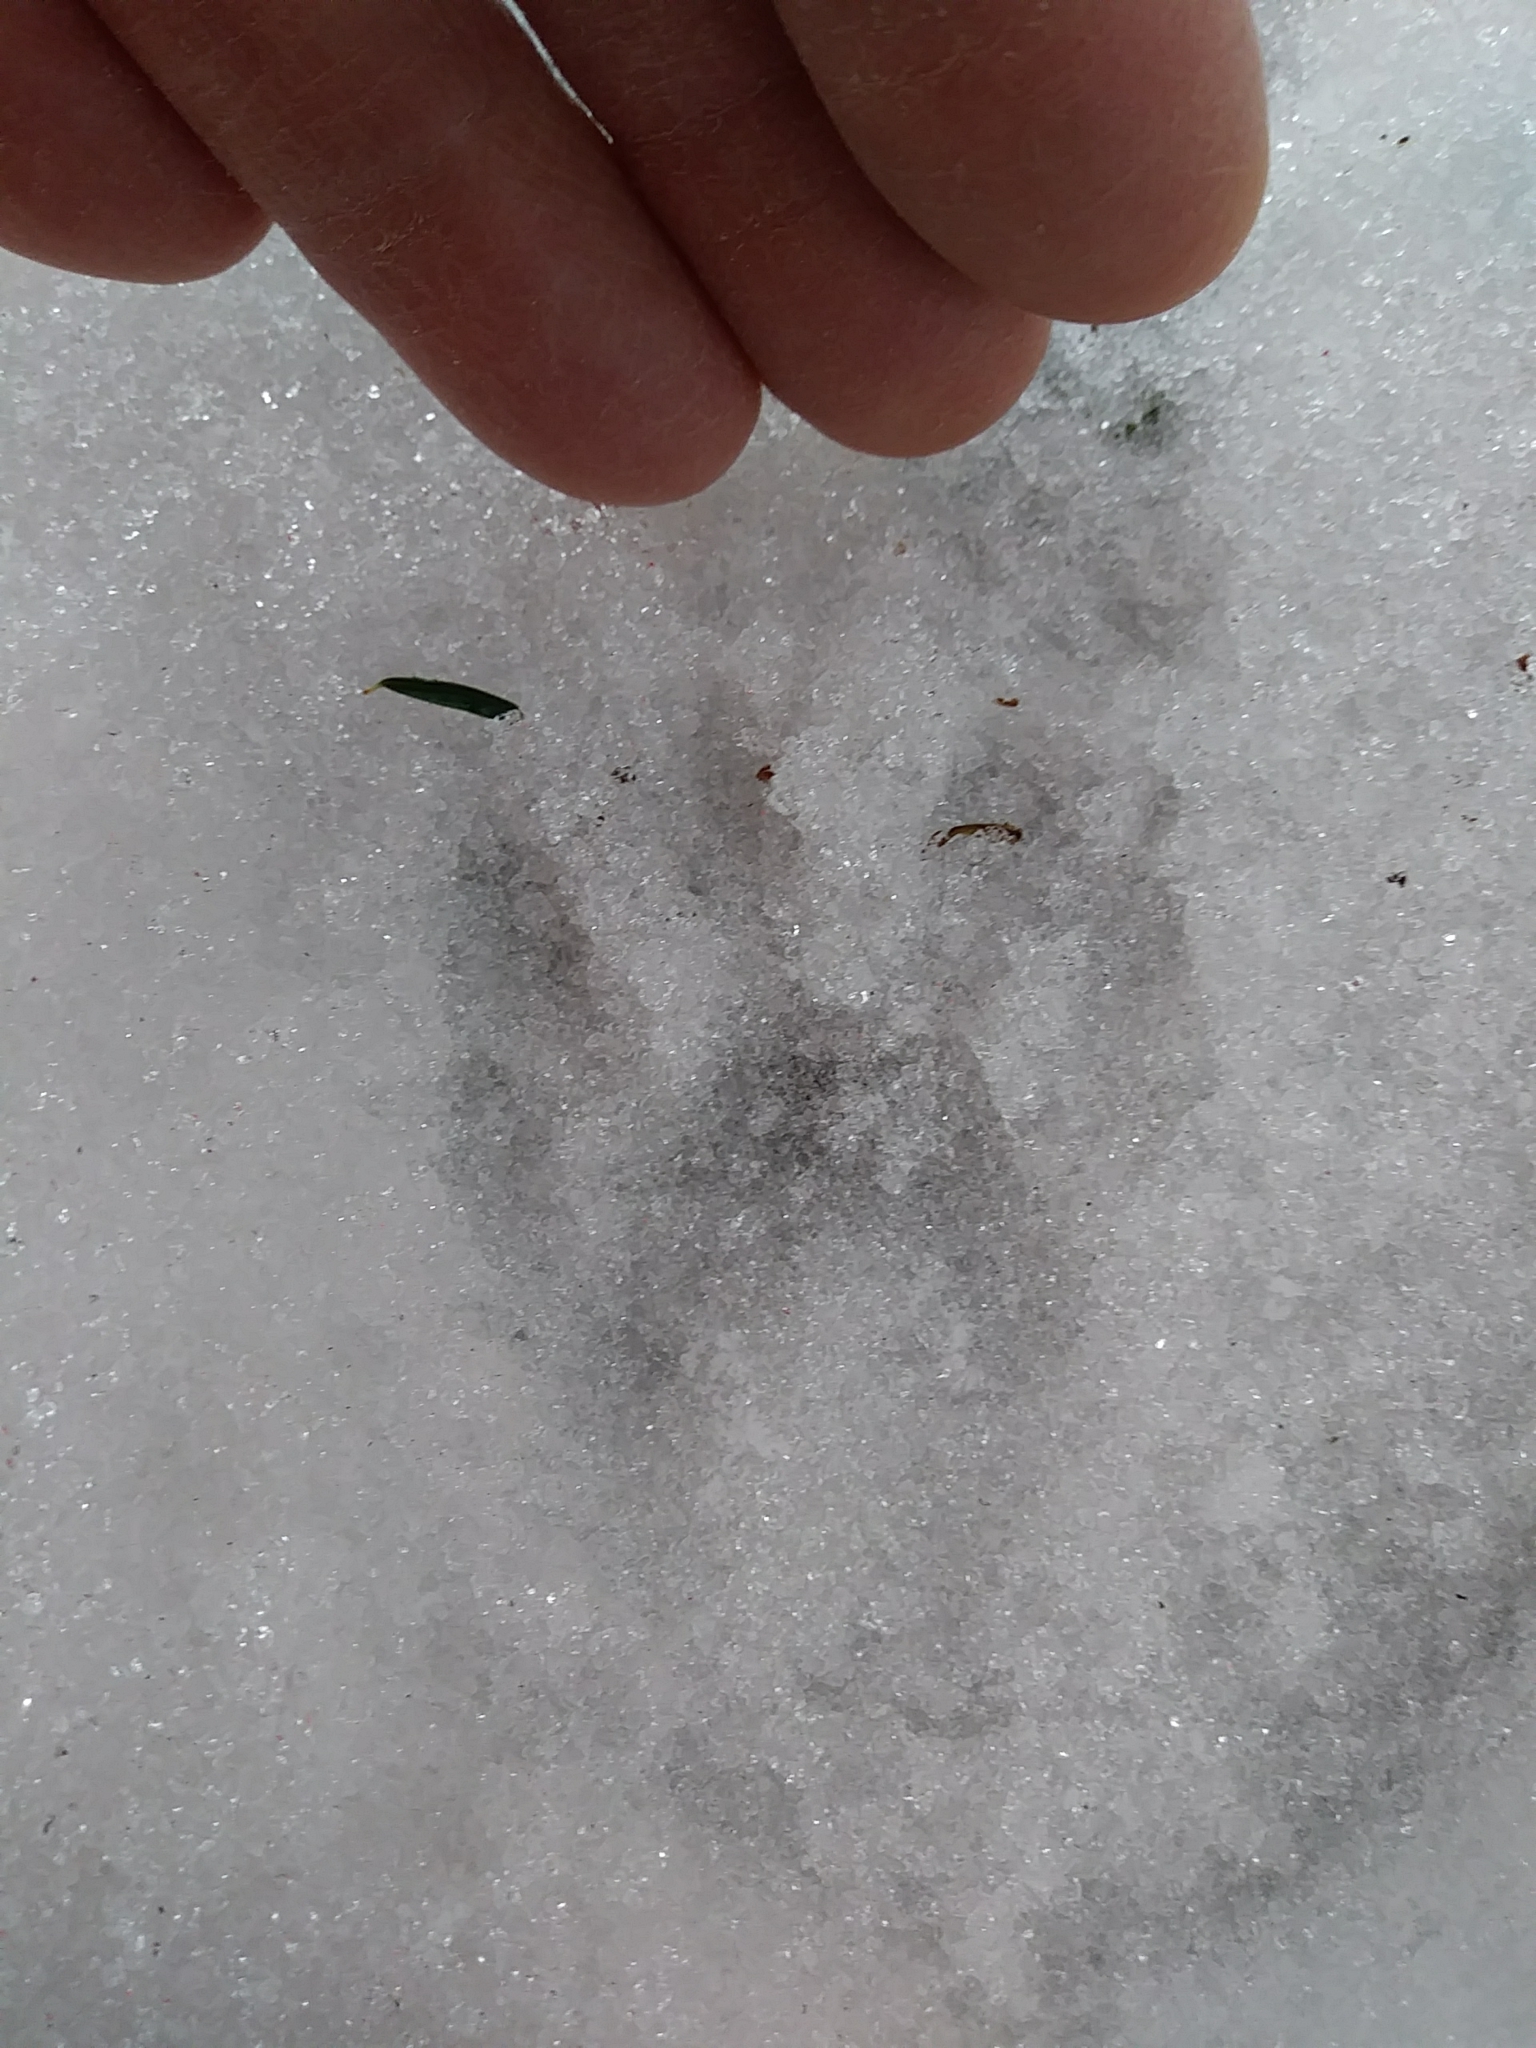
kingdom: Animalia
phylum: Chordata
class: Mammalia
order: Carnivora
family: Procyonidae
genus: Procyon
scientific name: Procyon lotor
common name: Raccoon
